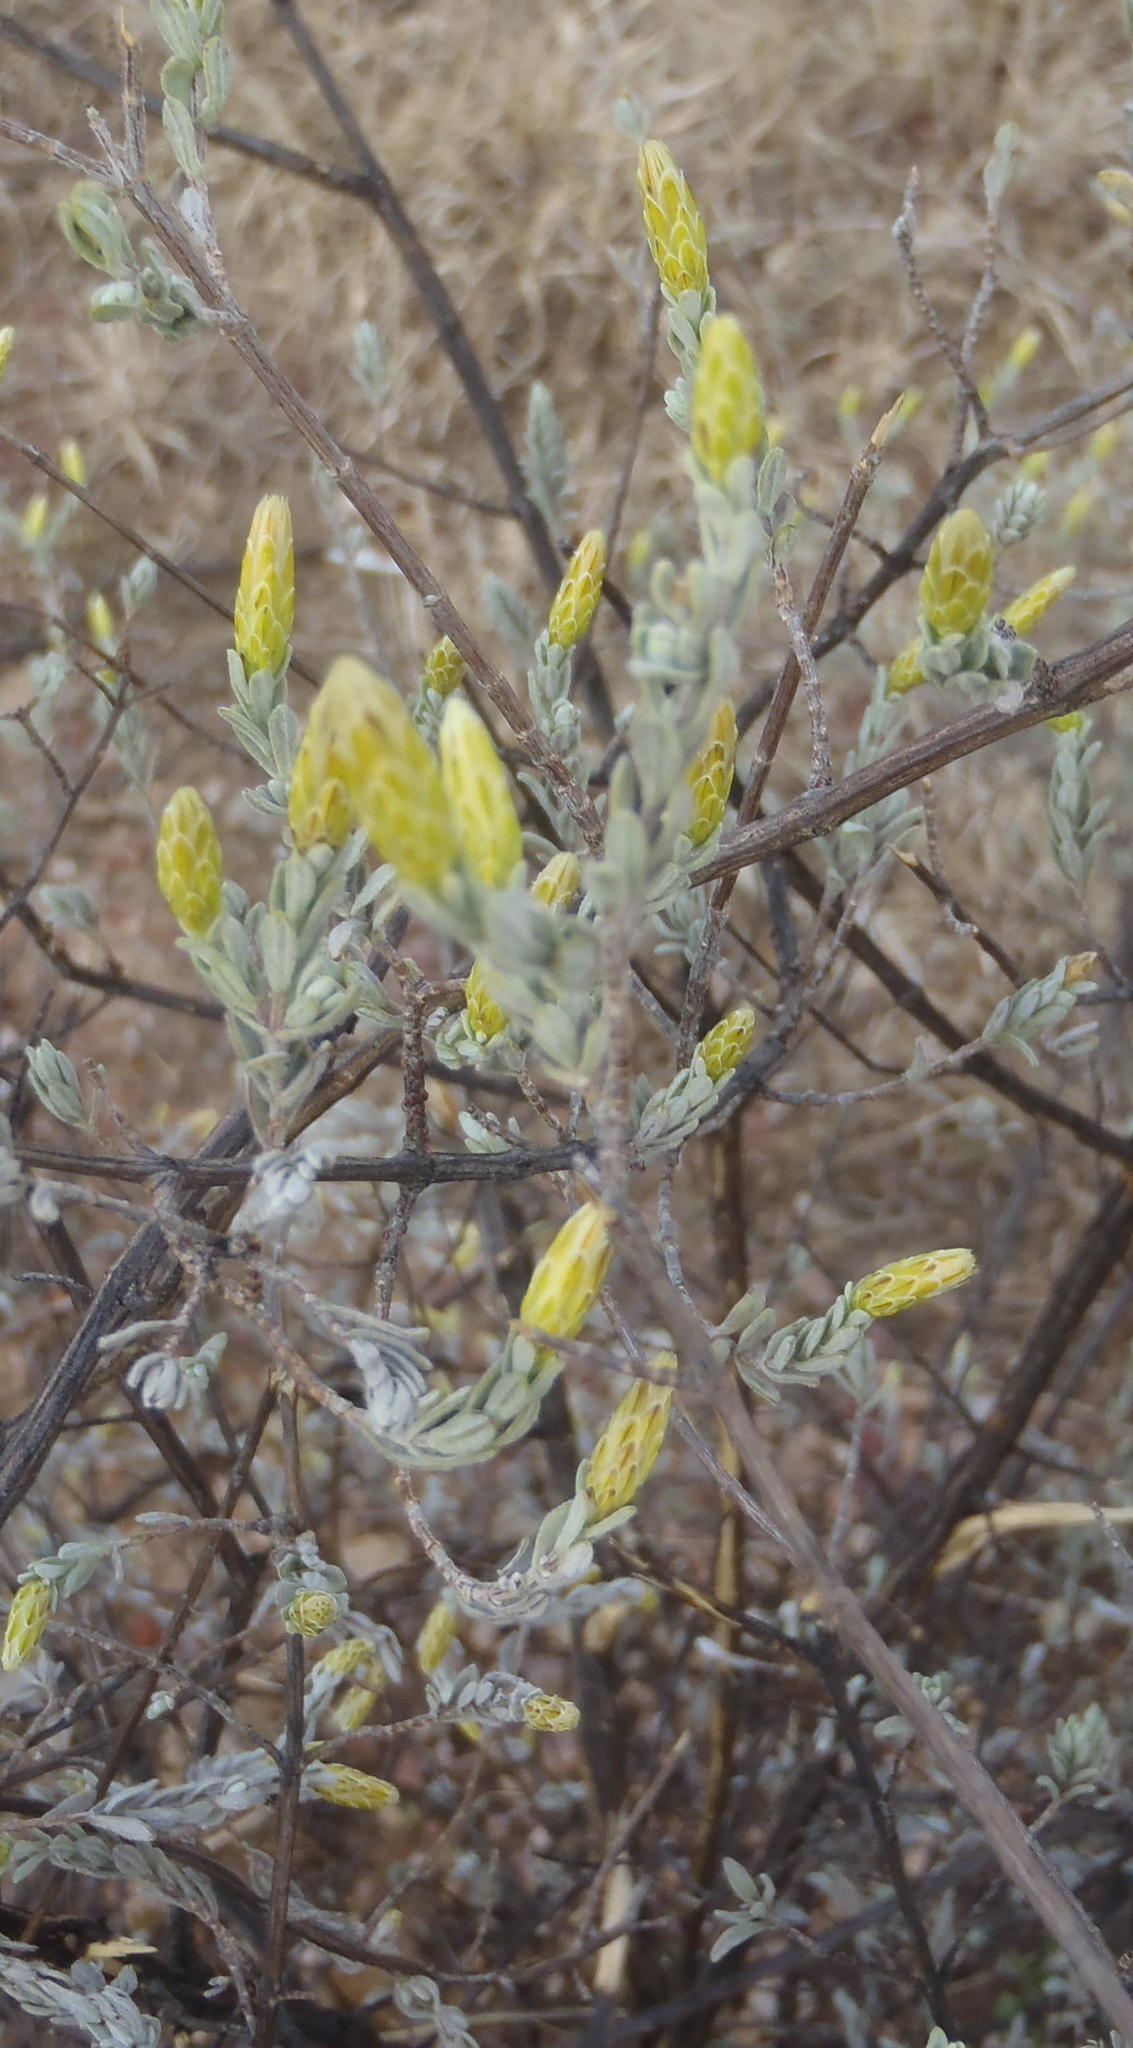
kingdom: Plantae
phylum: Tracheophyta
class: Magnoliopsida
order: Asterales
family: Asteraceae
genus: Pteronia
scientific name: Pteronia incana
